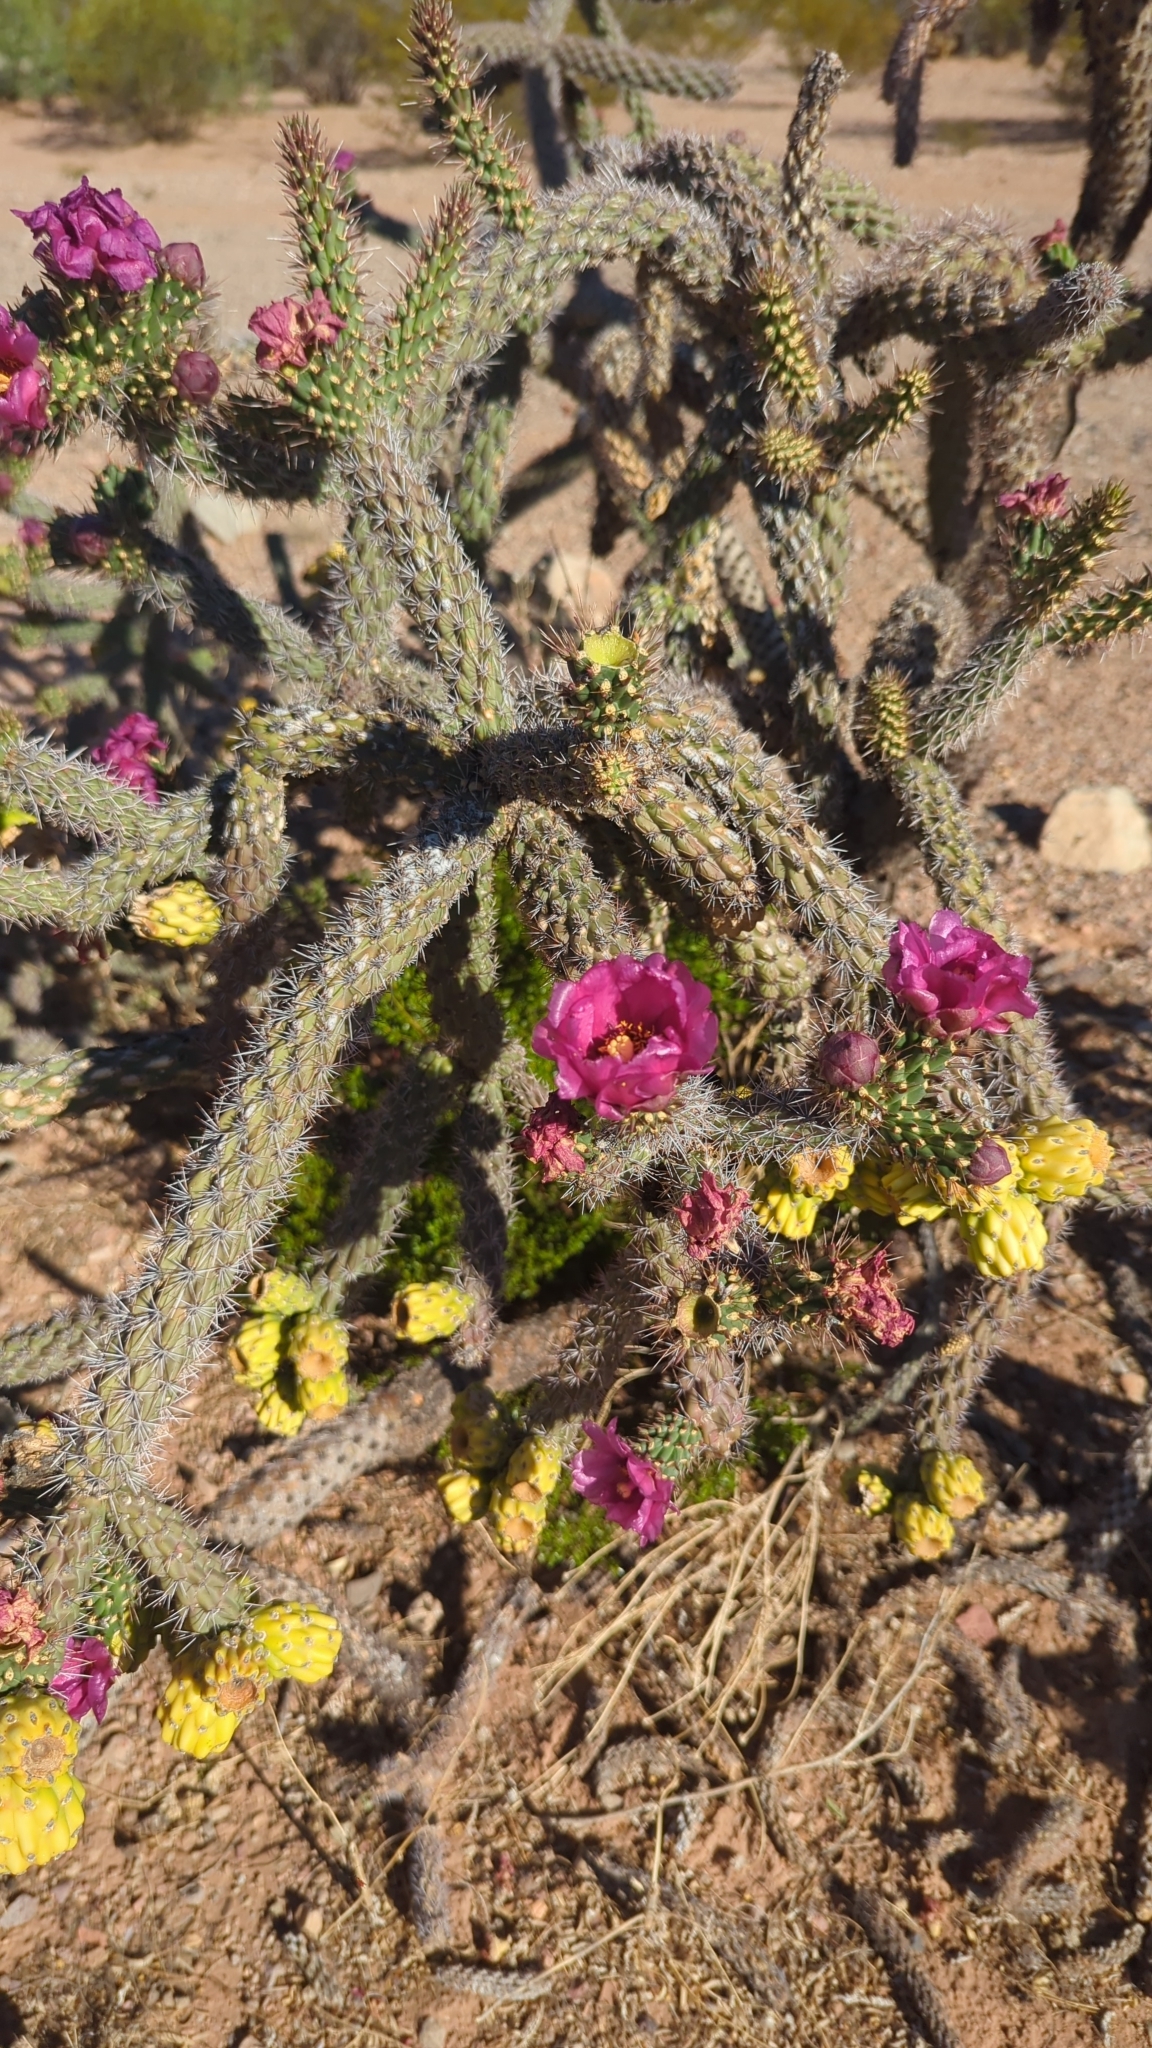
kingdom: Plantae
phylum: Tracheophyta
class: Magnoliopsida
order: Caryophyllales
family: Cactaceae
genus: Cylindropuntia
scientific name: Cylindropuntia imbricata
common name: Candelabrum cactus
